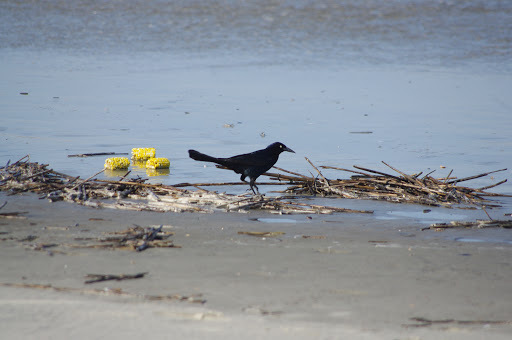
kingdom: Animalia
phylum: Chordata
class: Aves
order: Passeriformes
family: Icteridae
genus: Quiscalus
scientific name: Quiscalus major
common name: Boat-tailed grackle
